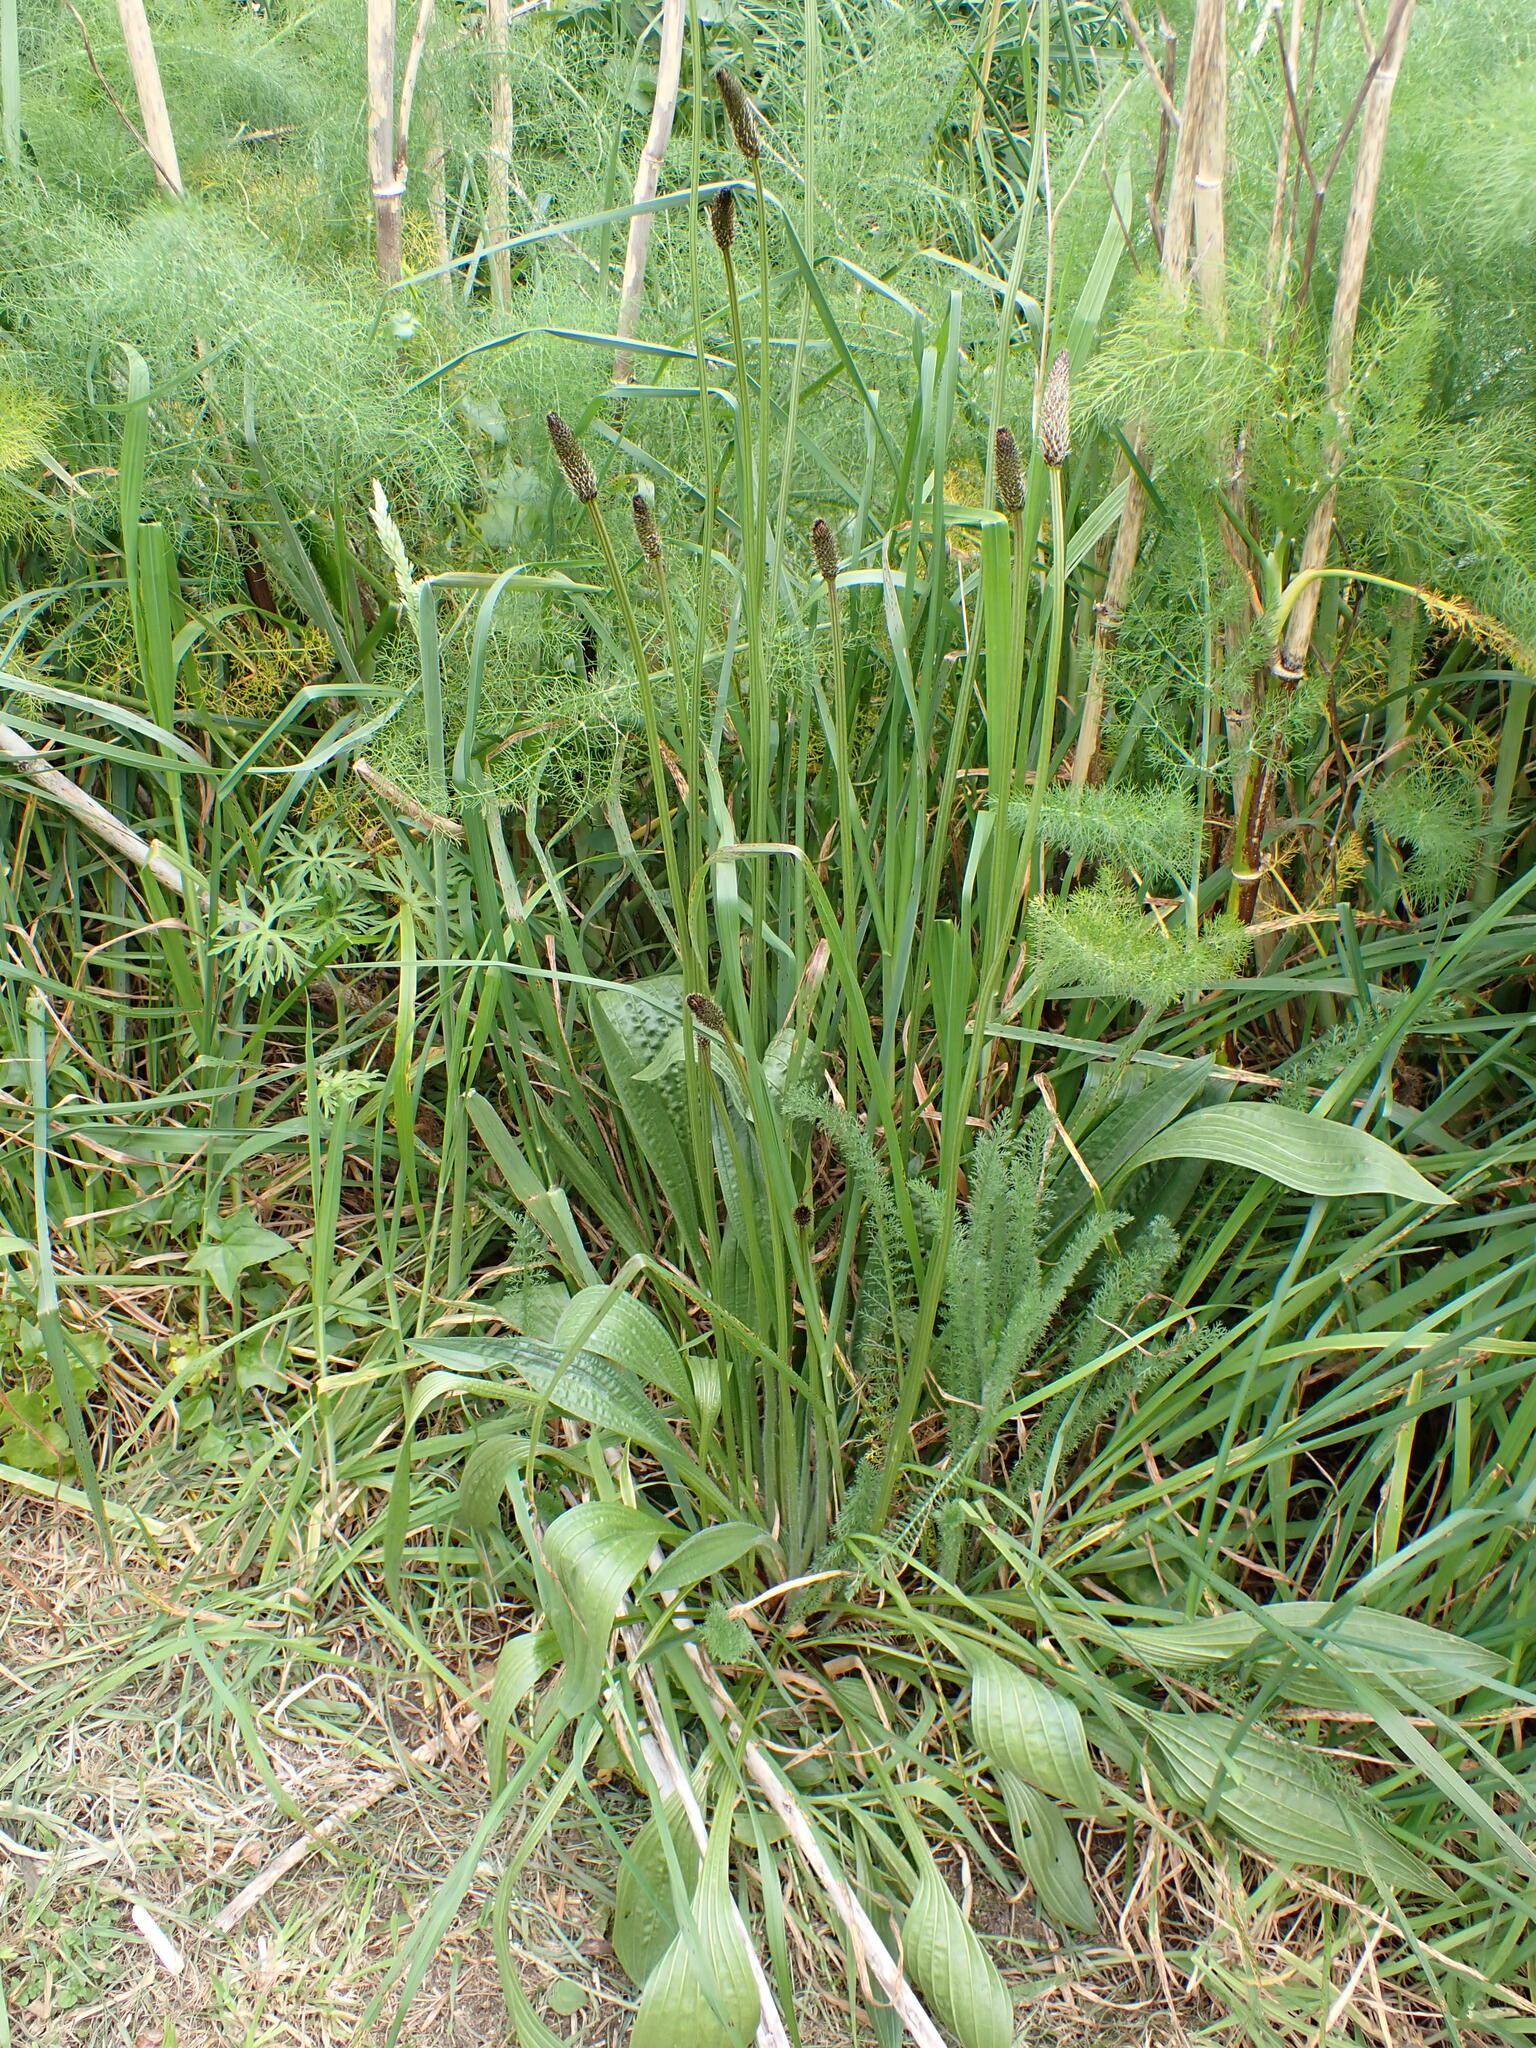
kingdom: Plantae
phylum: Tracheophyta
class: Magnoliopsida
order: Lamiales
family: Plantaginaceae
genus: Plantago
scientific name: Plantago lanceolata
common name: Ribwort plantain
